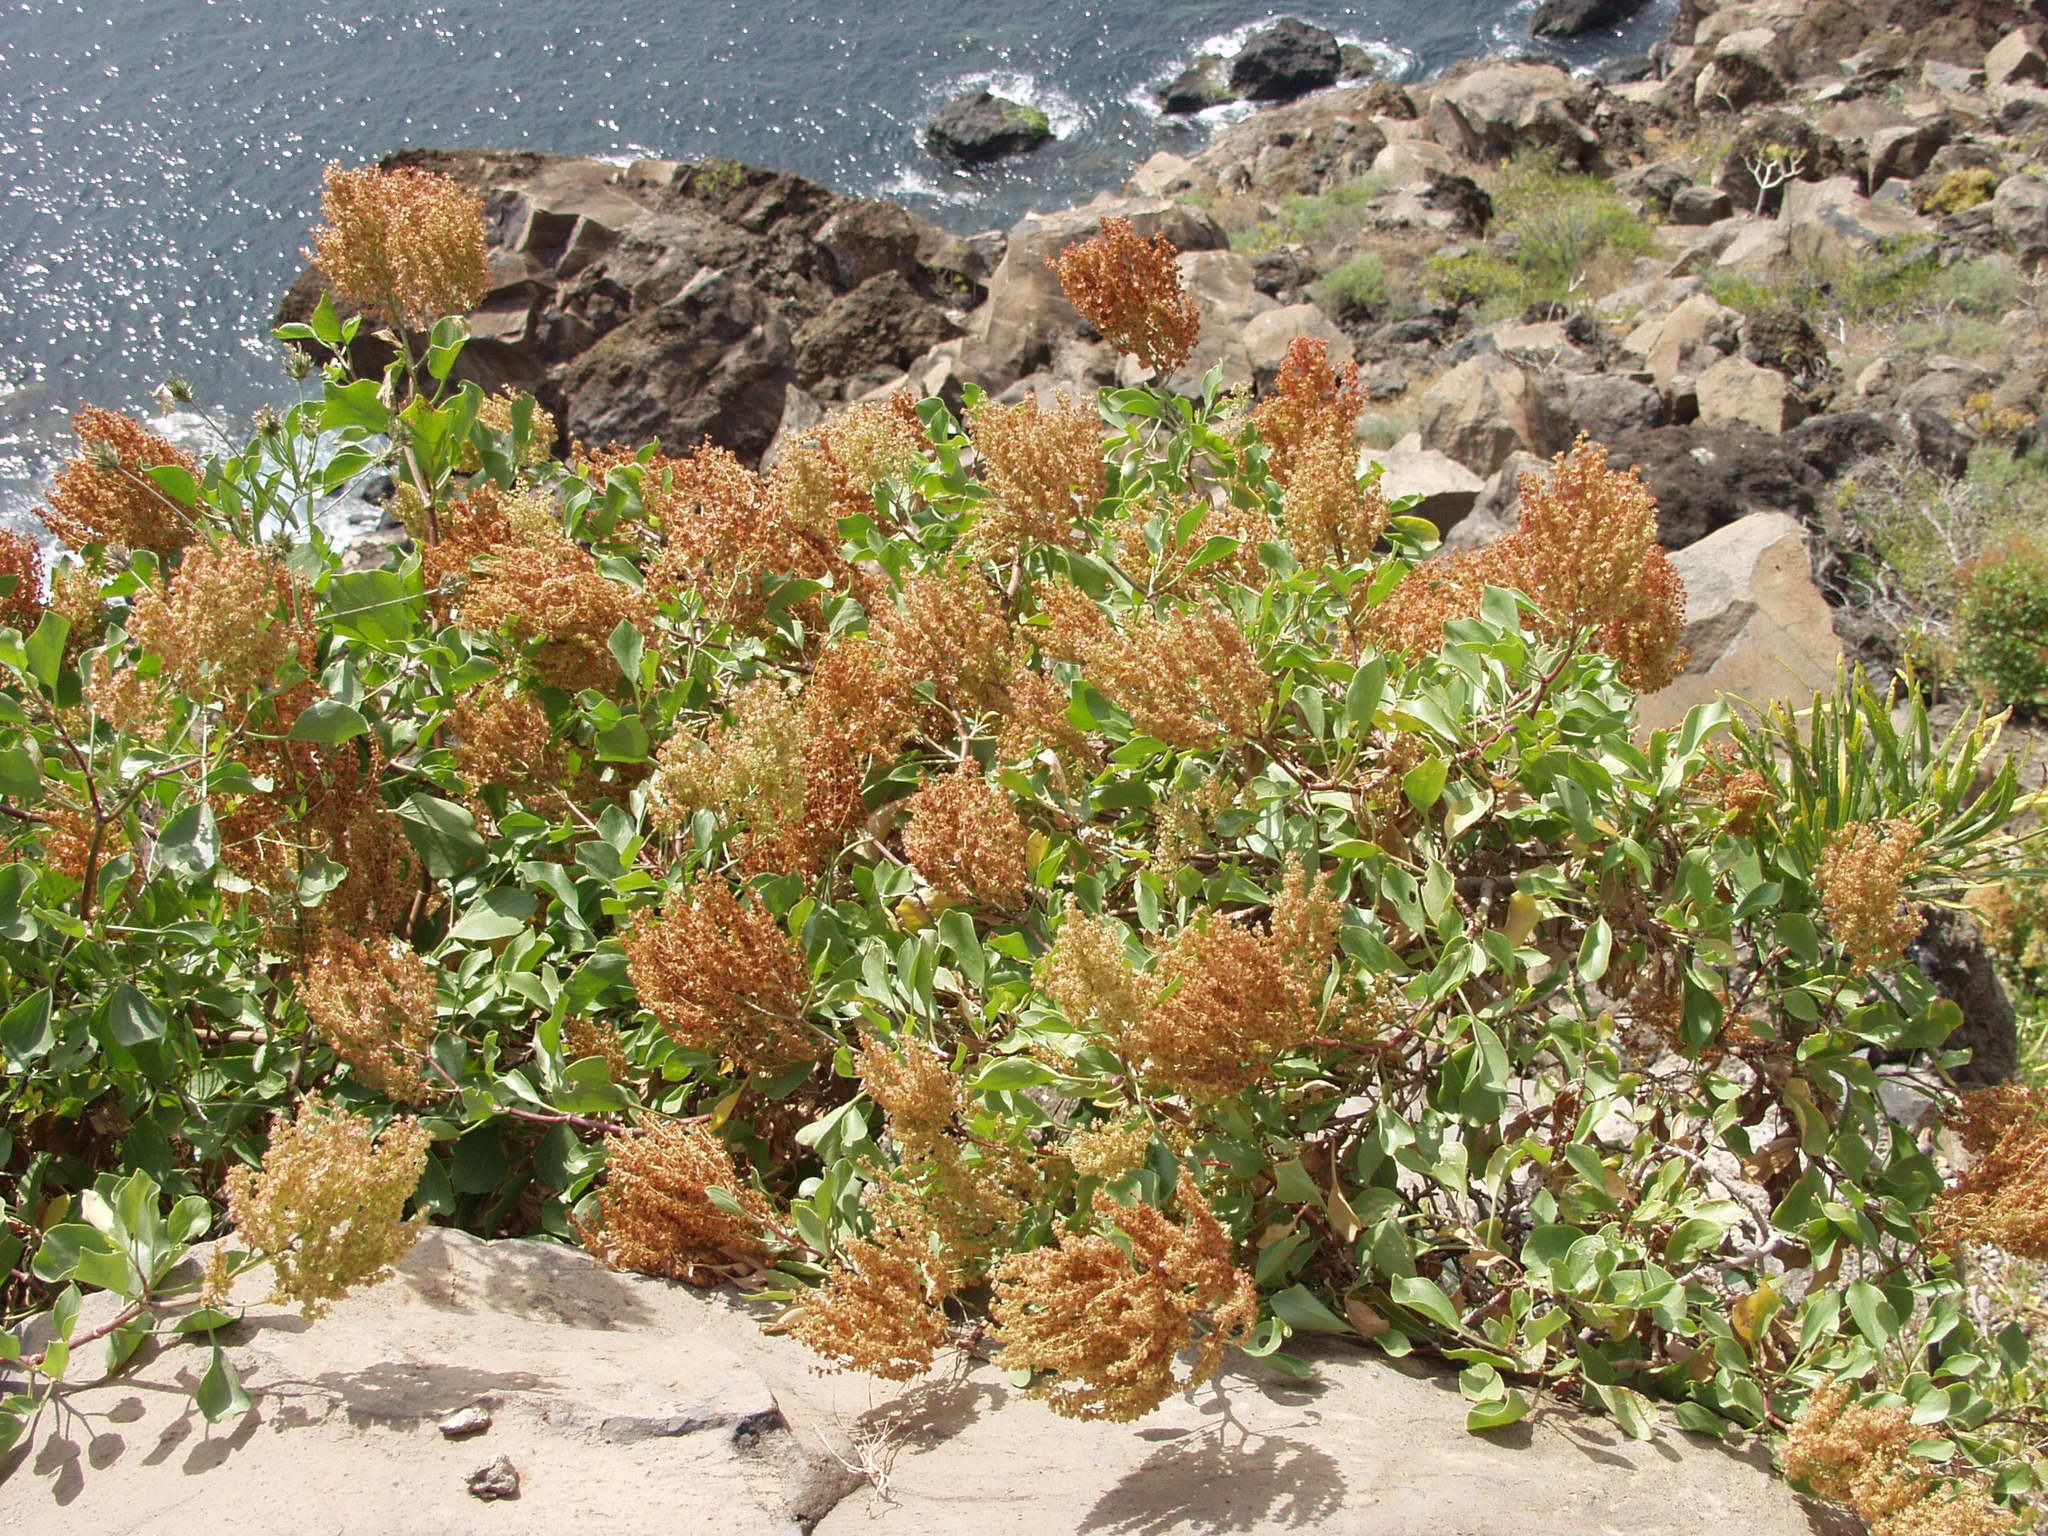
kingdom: Plantae
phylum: Tracheophyta
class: Magnoliopsida
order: Caryophyllales
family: Polygonaceae
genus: Rumex
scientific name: Rumex lunaria
